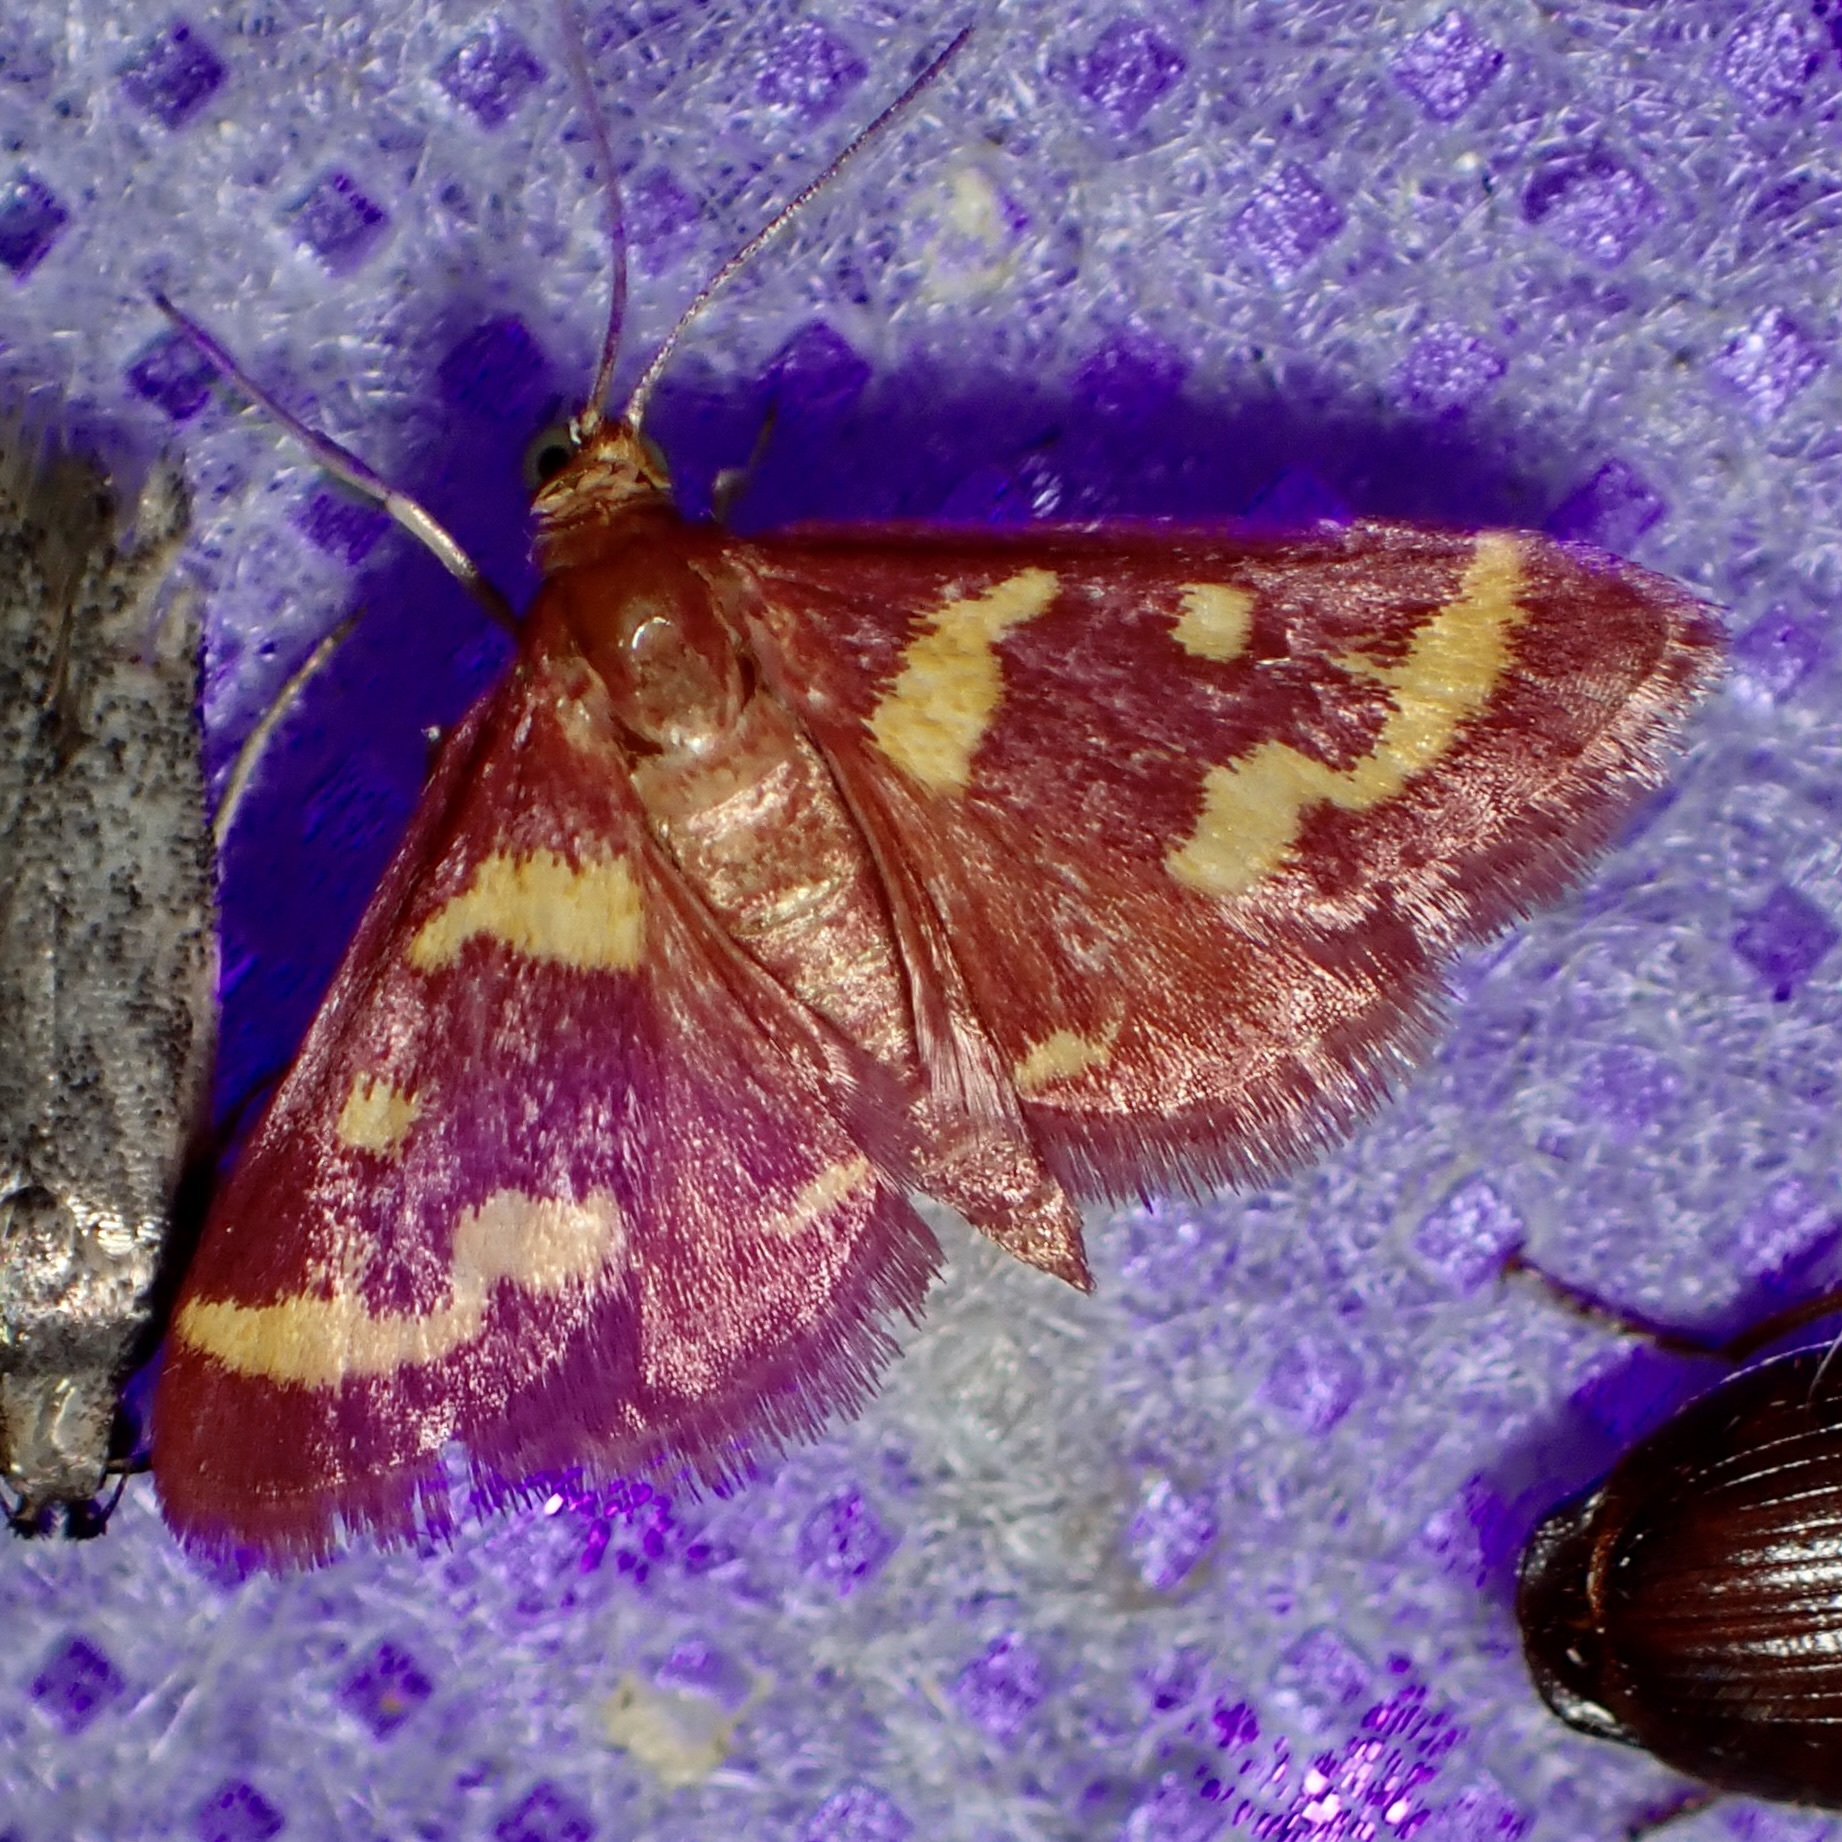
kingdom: Animalia
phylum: Arthropoda
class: Insecta
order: Lepidoptera
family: Crambidae
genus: Pyrausta
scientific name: Pyrausta tyralis
